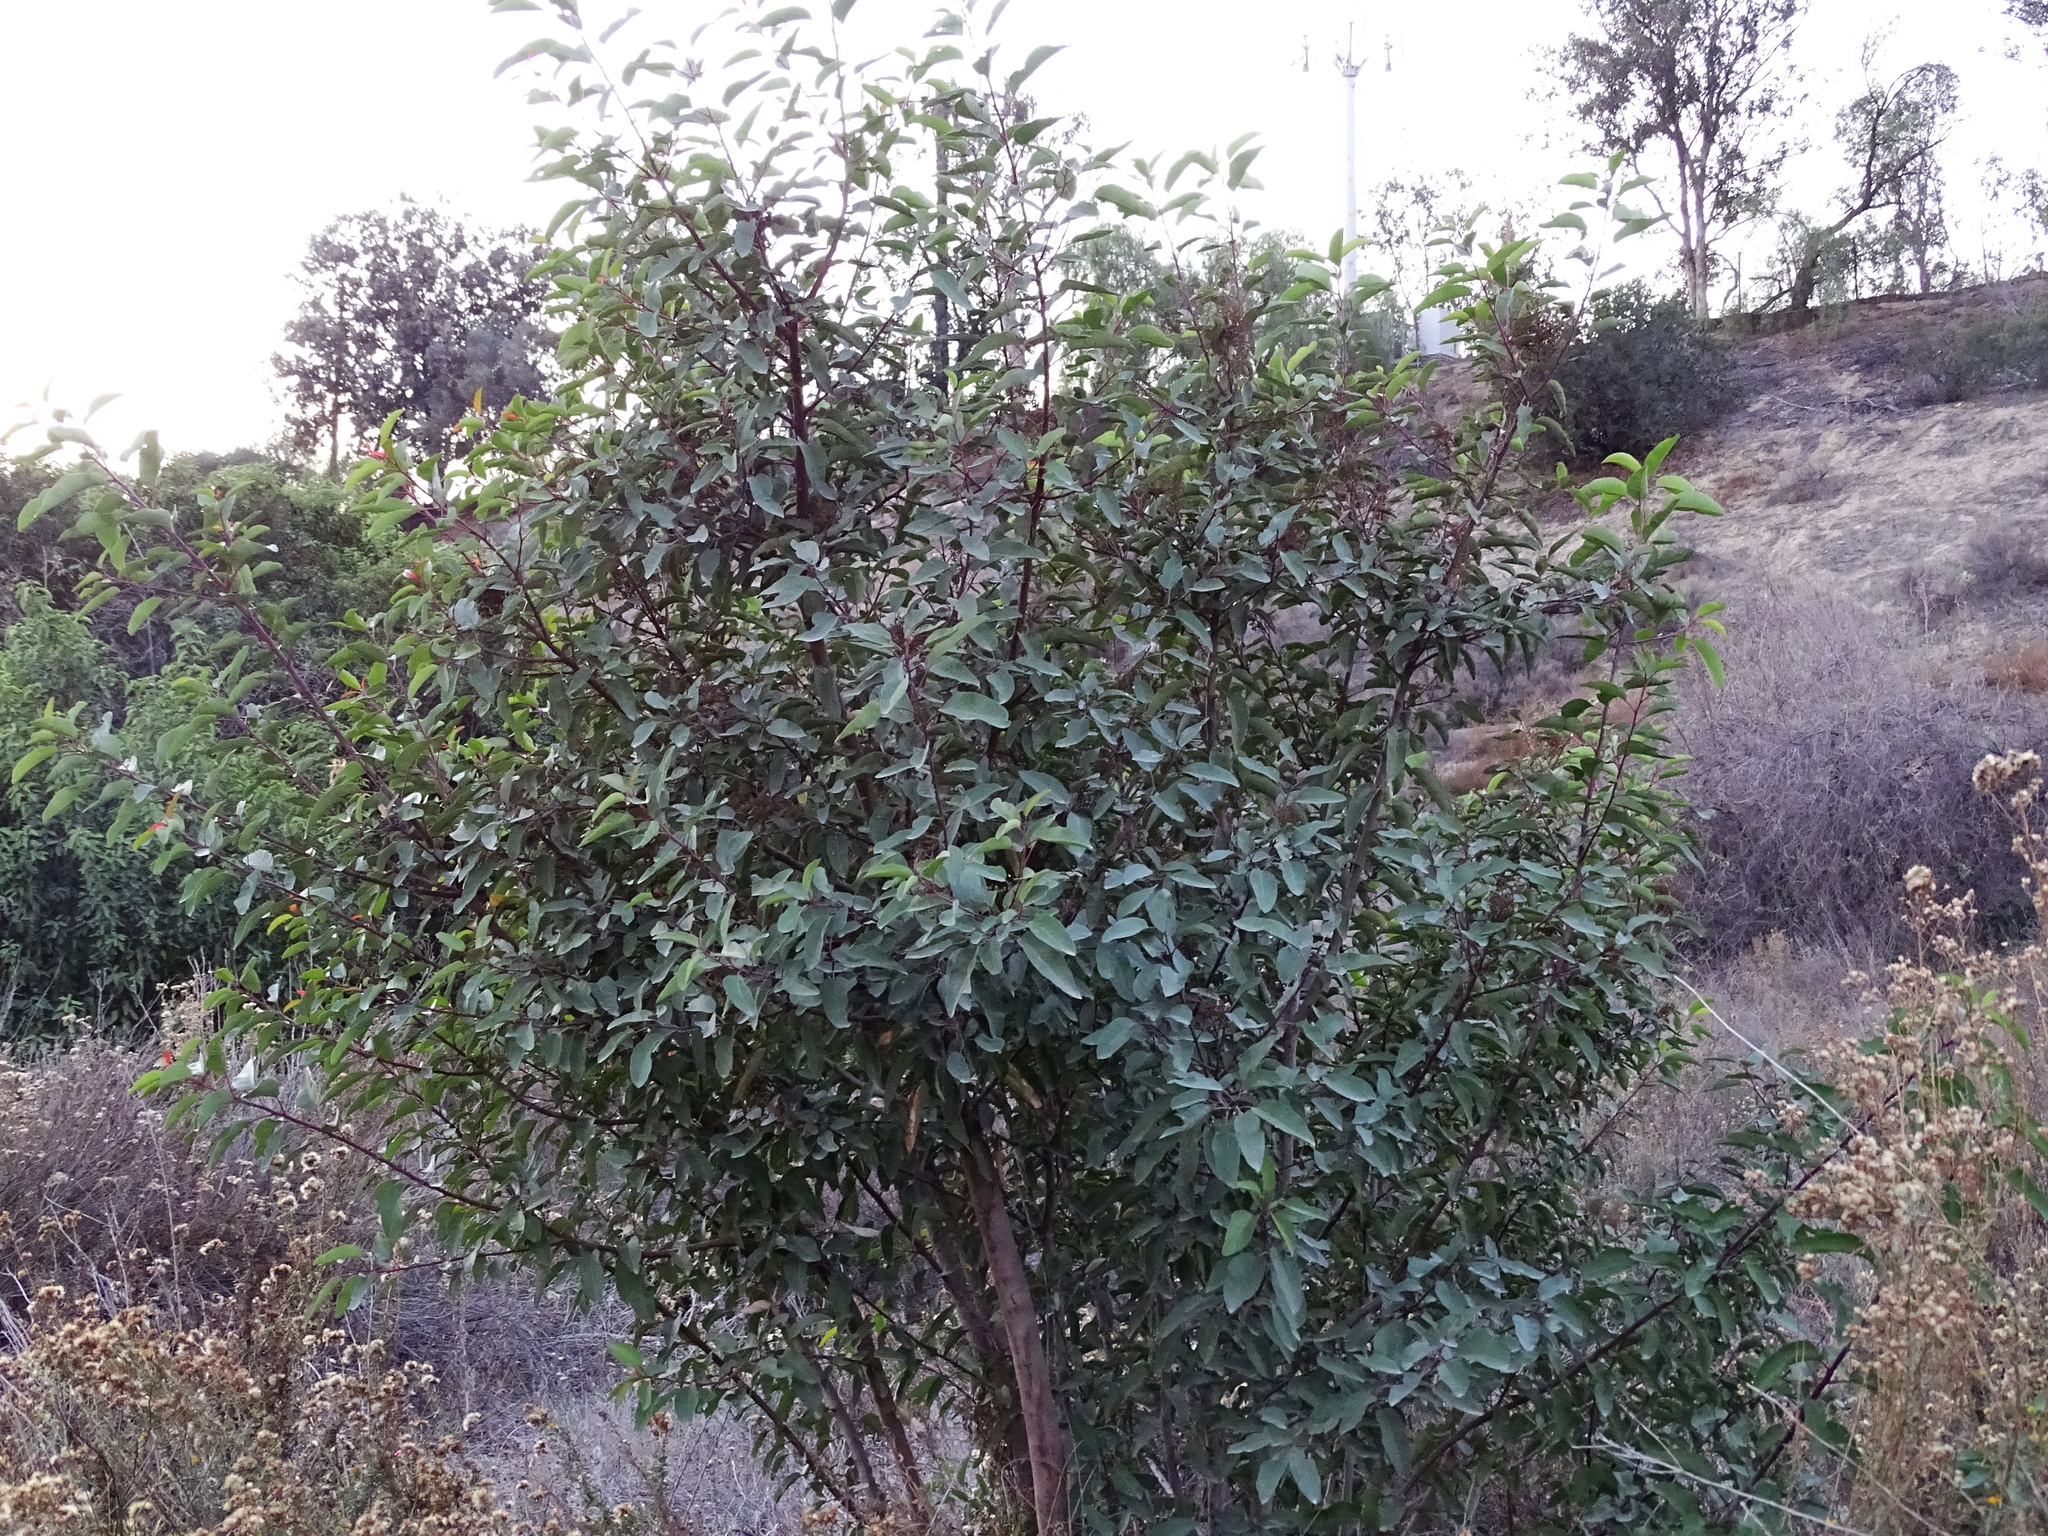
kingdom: Plantae
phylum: Tracheophyta
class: Magnoliopsida
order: Sapindales
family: Anacardiaceae
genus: Malosma
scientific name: Malosma laurina
